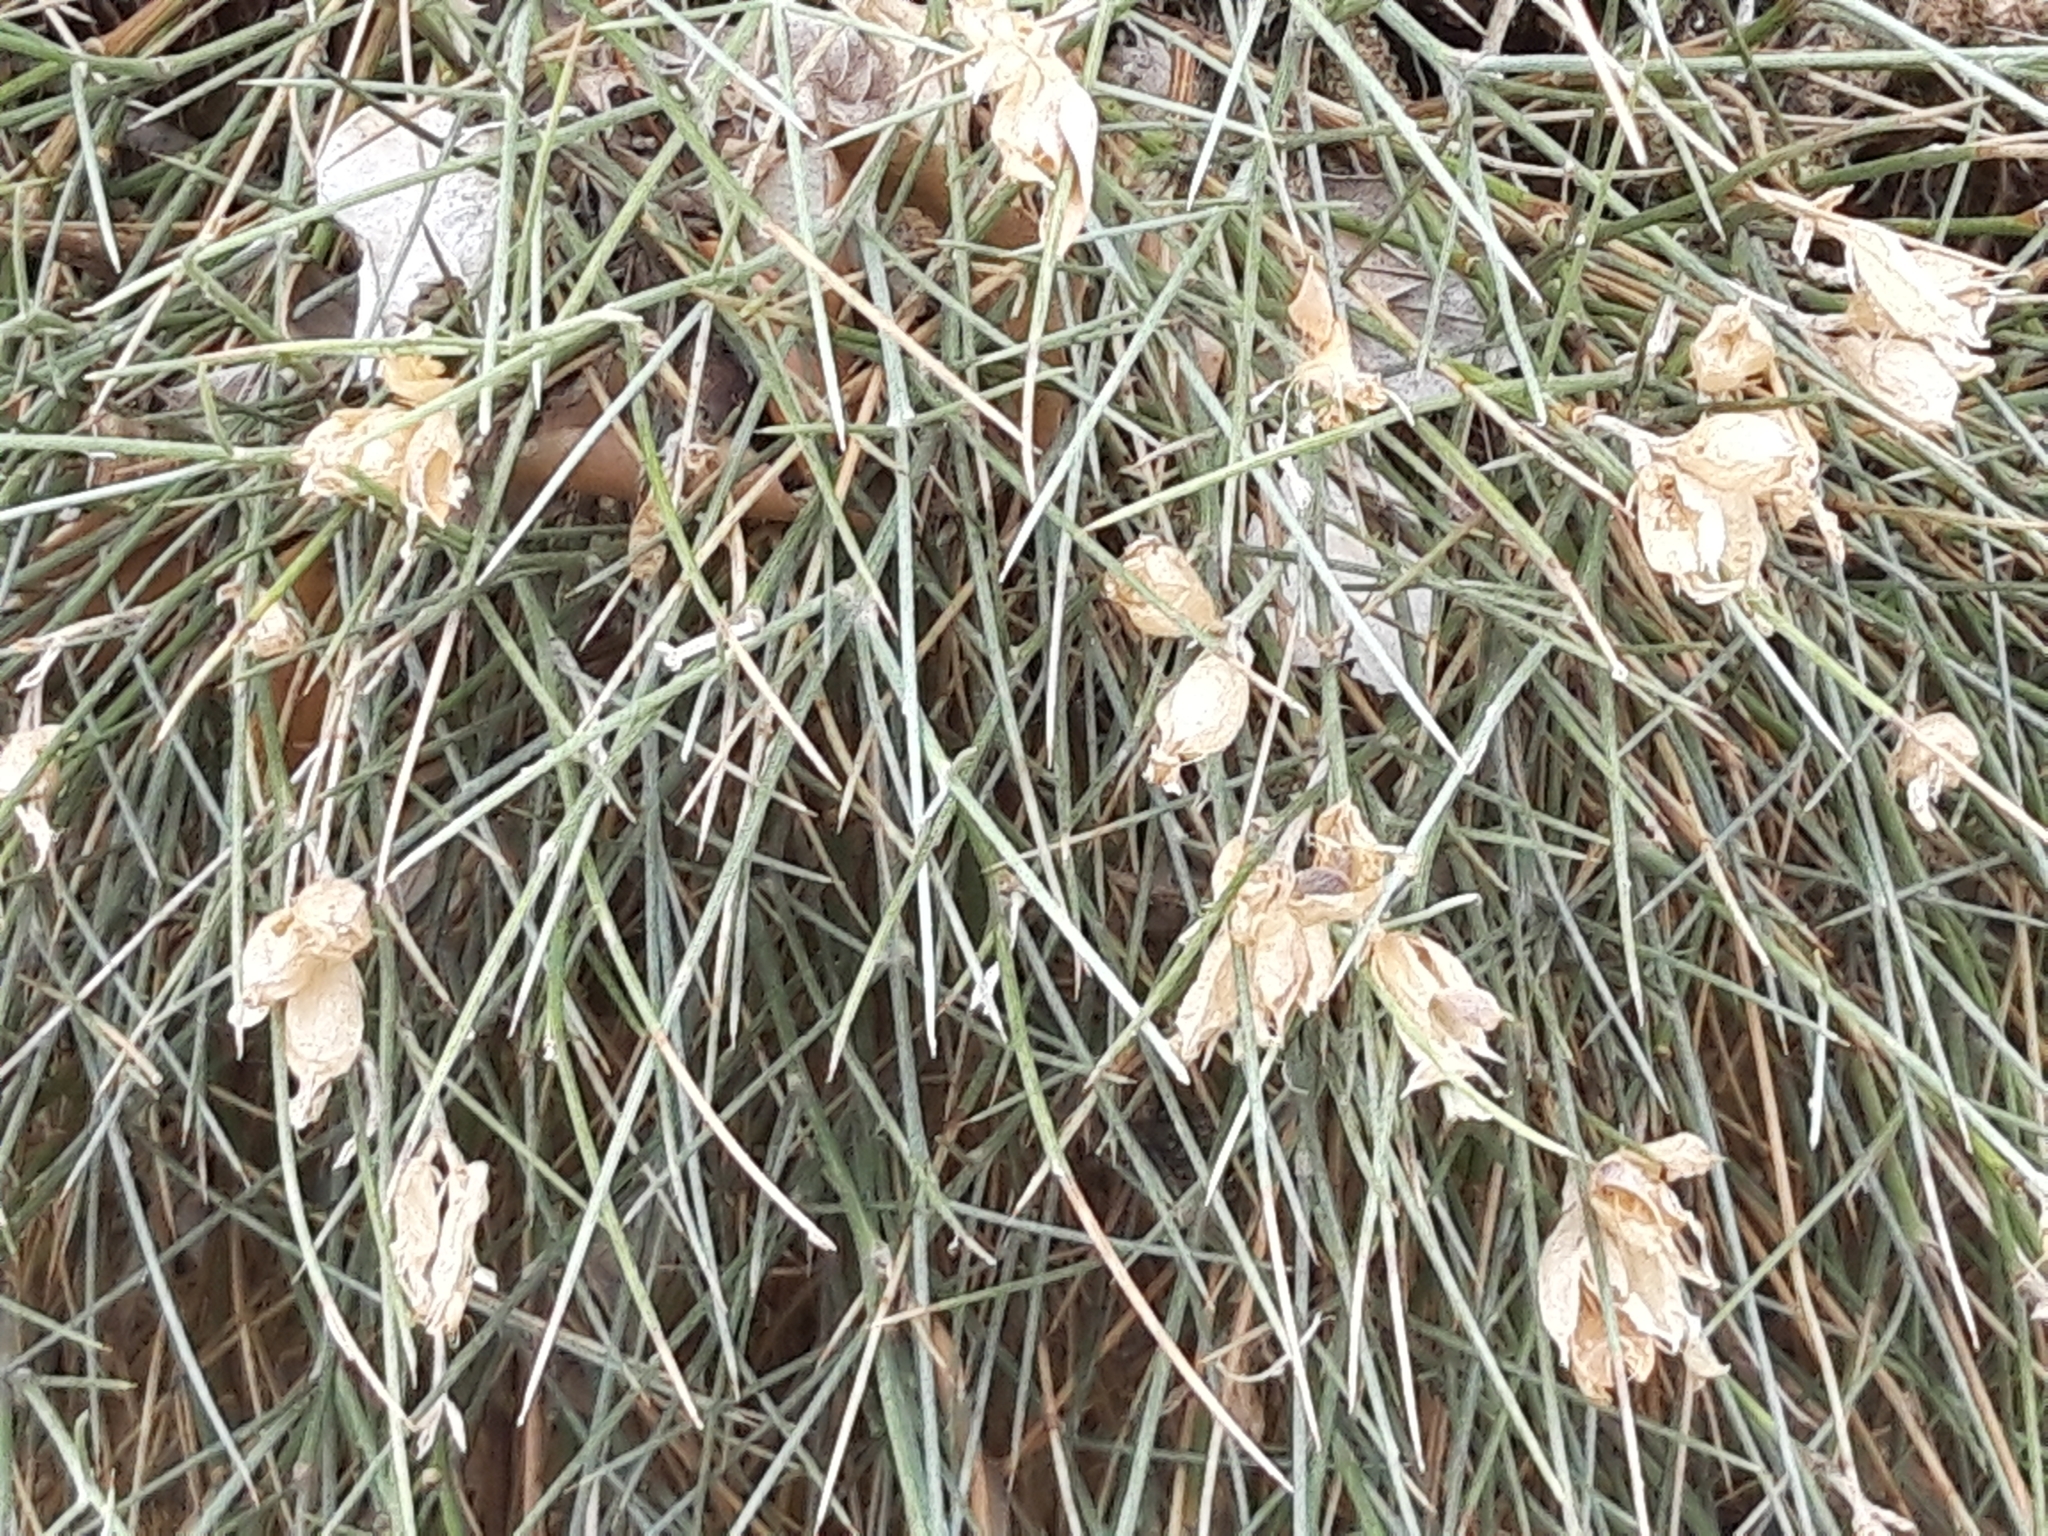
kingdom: Plantae
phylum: Tracheophyta
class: Magnoliopsida
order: Fabales
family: Fabaceae
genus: Erinacea
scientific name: Erinacea anthyllis
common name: Hedgehog-broom
